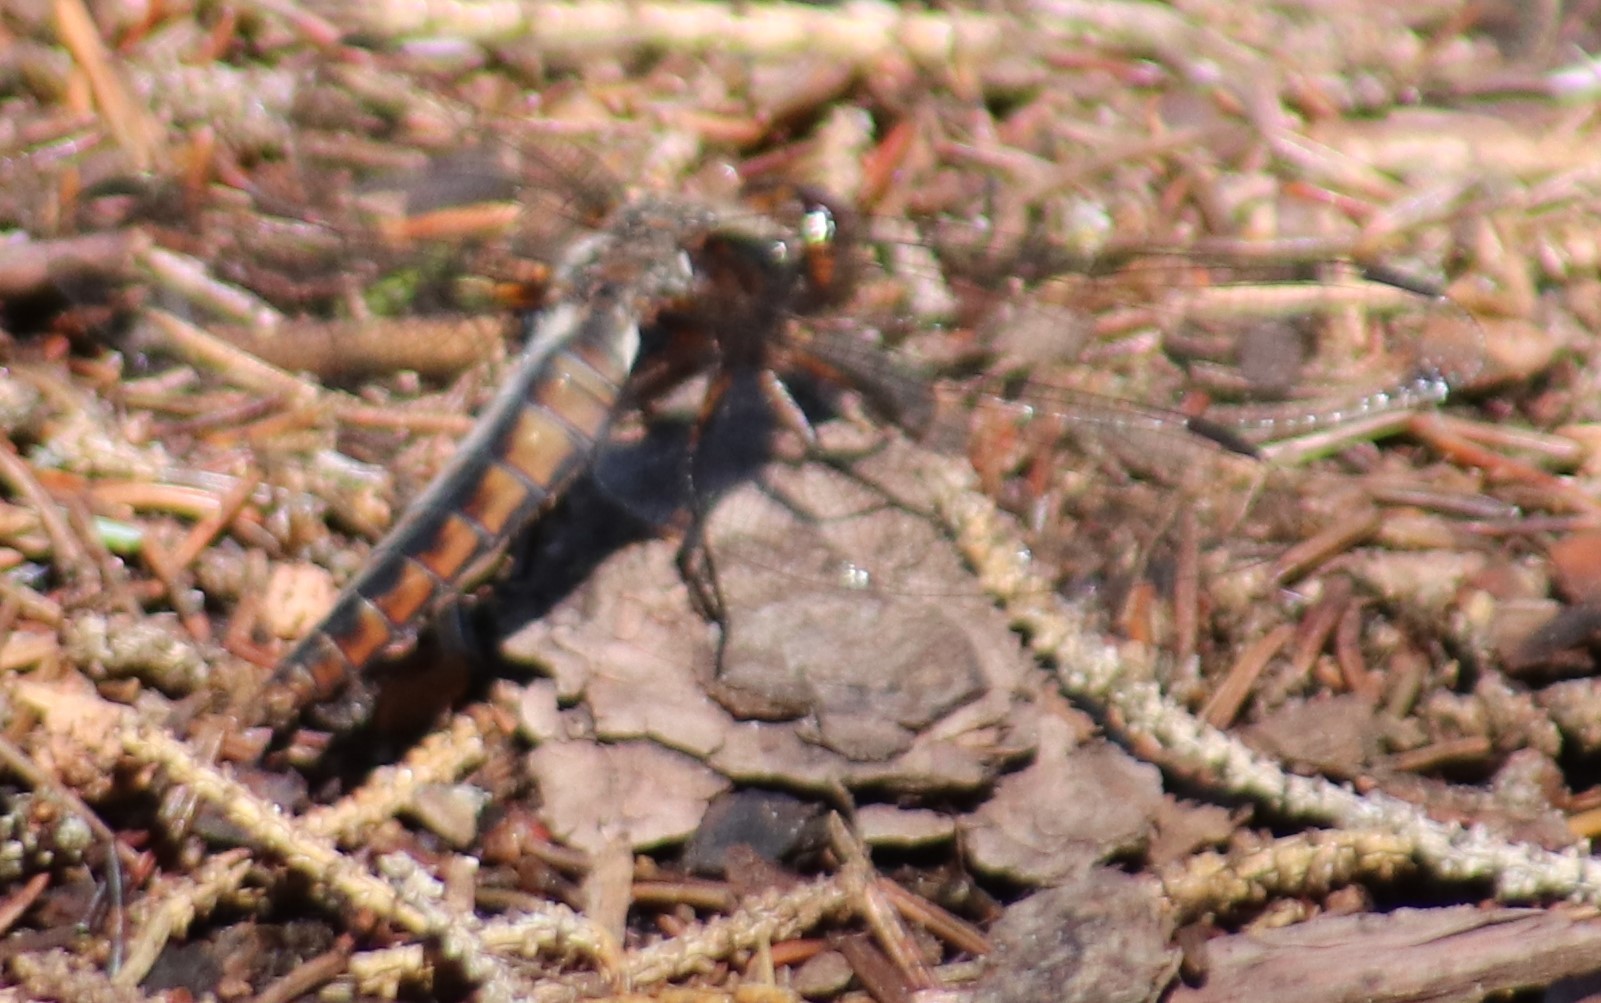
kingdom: Animalia
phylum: Arthropoda
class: Insecta
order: Odonata
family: Libellulidae
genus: Ladona
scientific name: Ladona julia
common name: Chalk-fronted corporal
